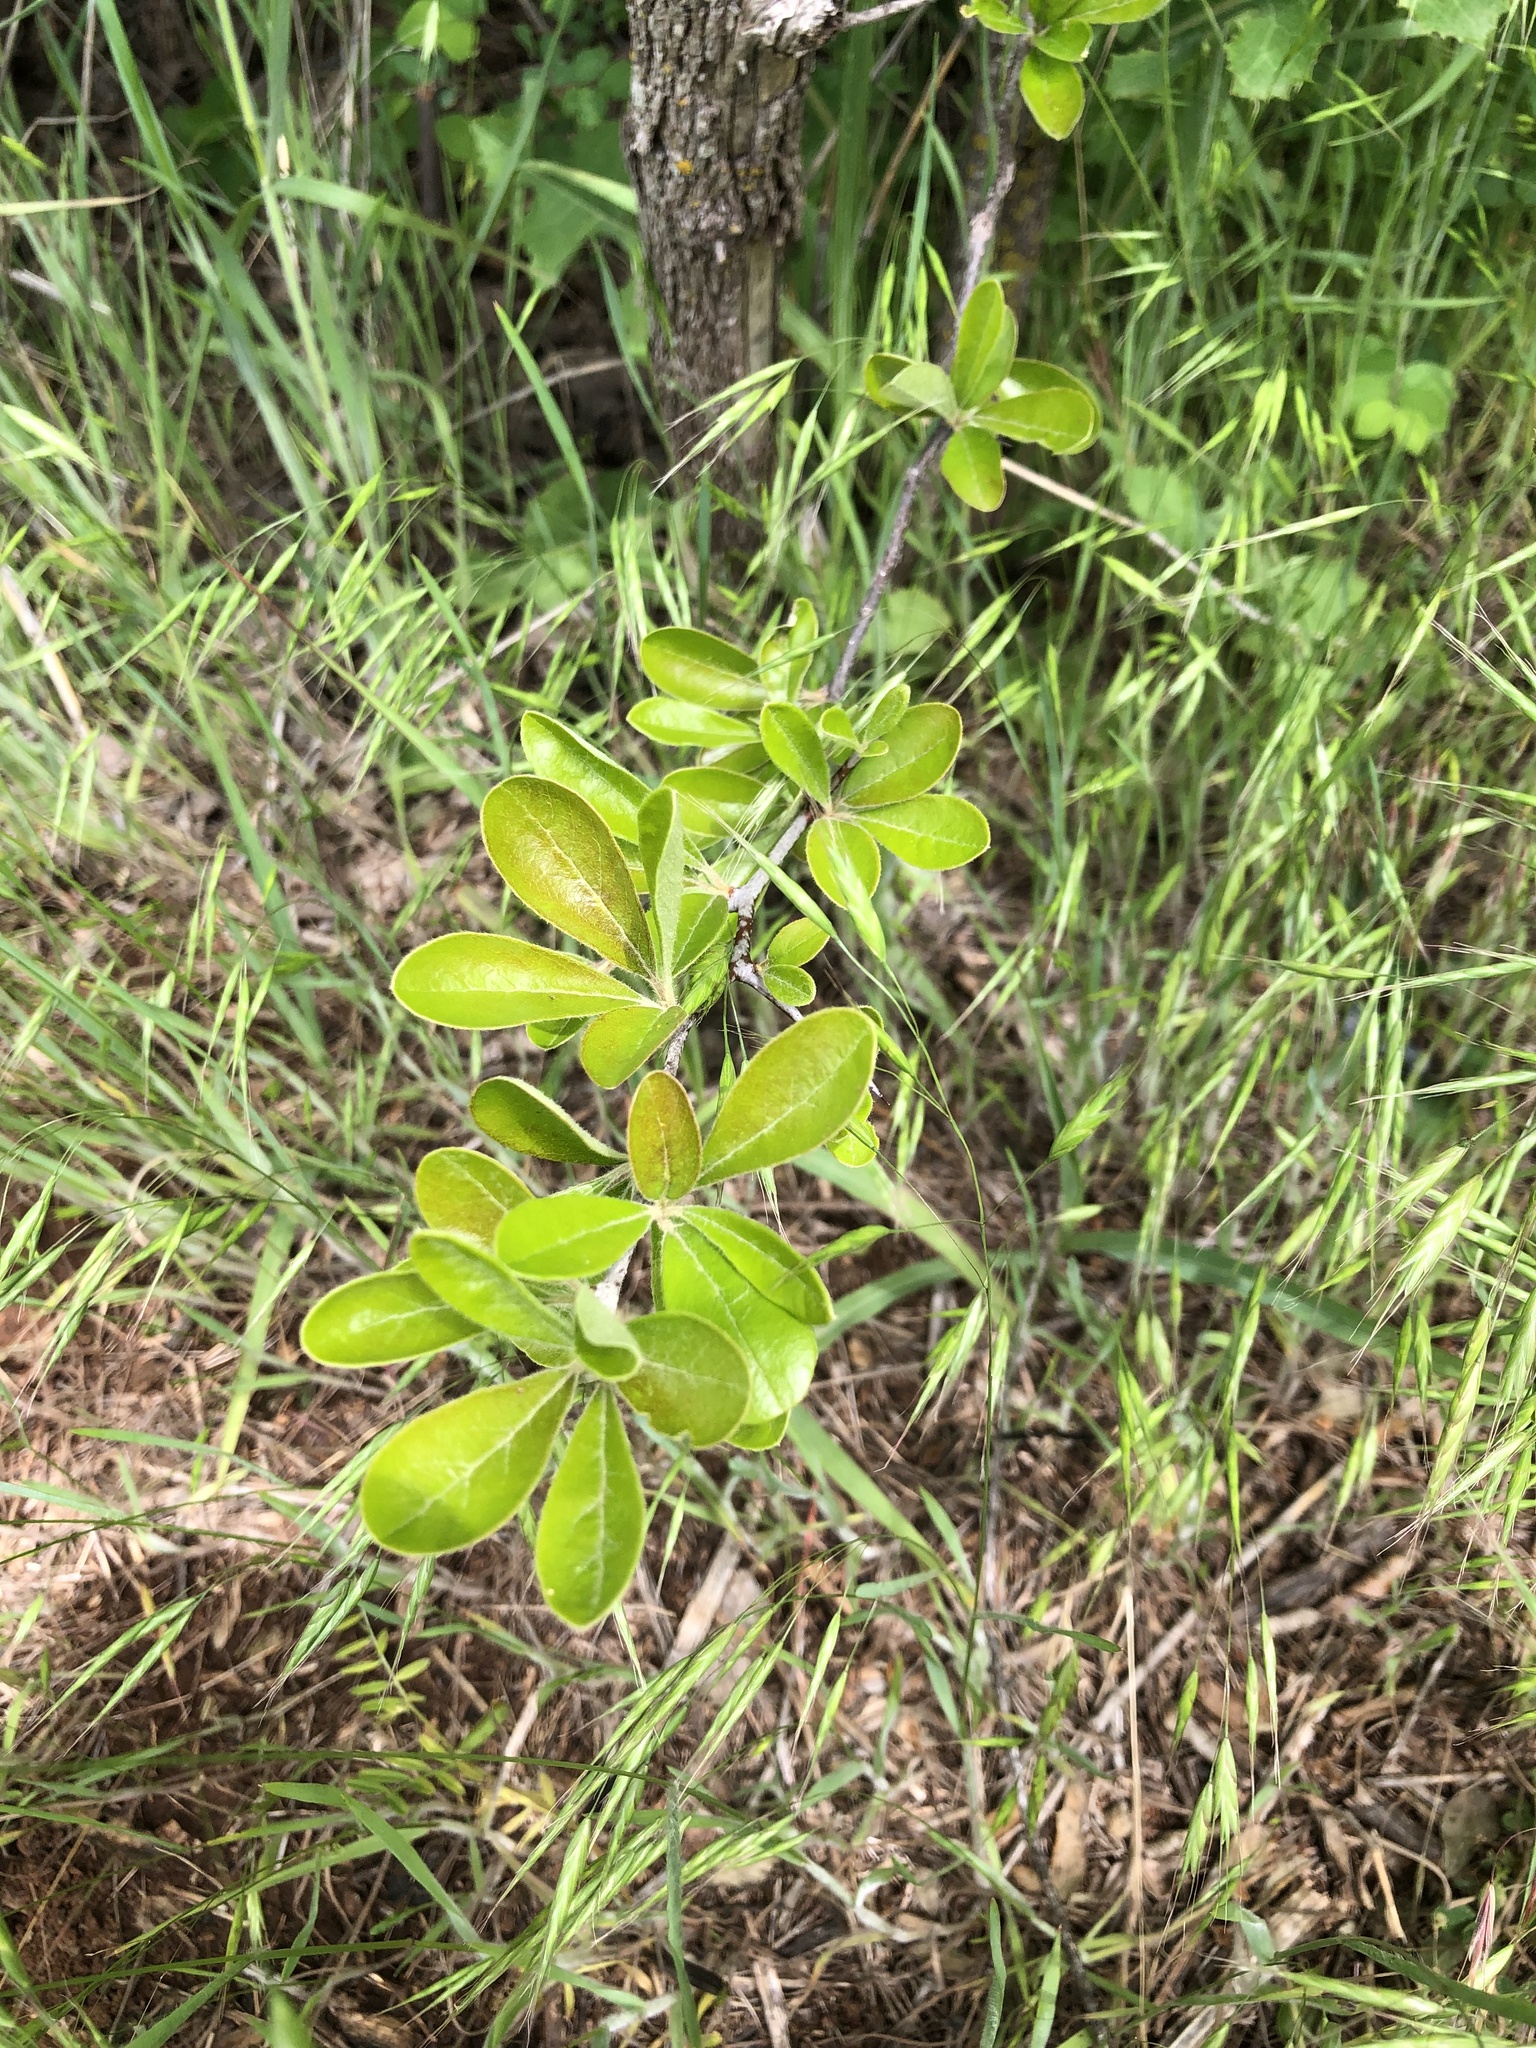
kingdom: Plantae
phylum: Tracheophyta
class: Magnoliopsida
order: Ericales
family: Sapotaceae
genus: Sideroxylon
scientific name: Sideroxylon lanuginosum
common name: Chittamwood
